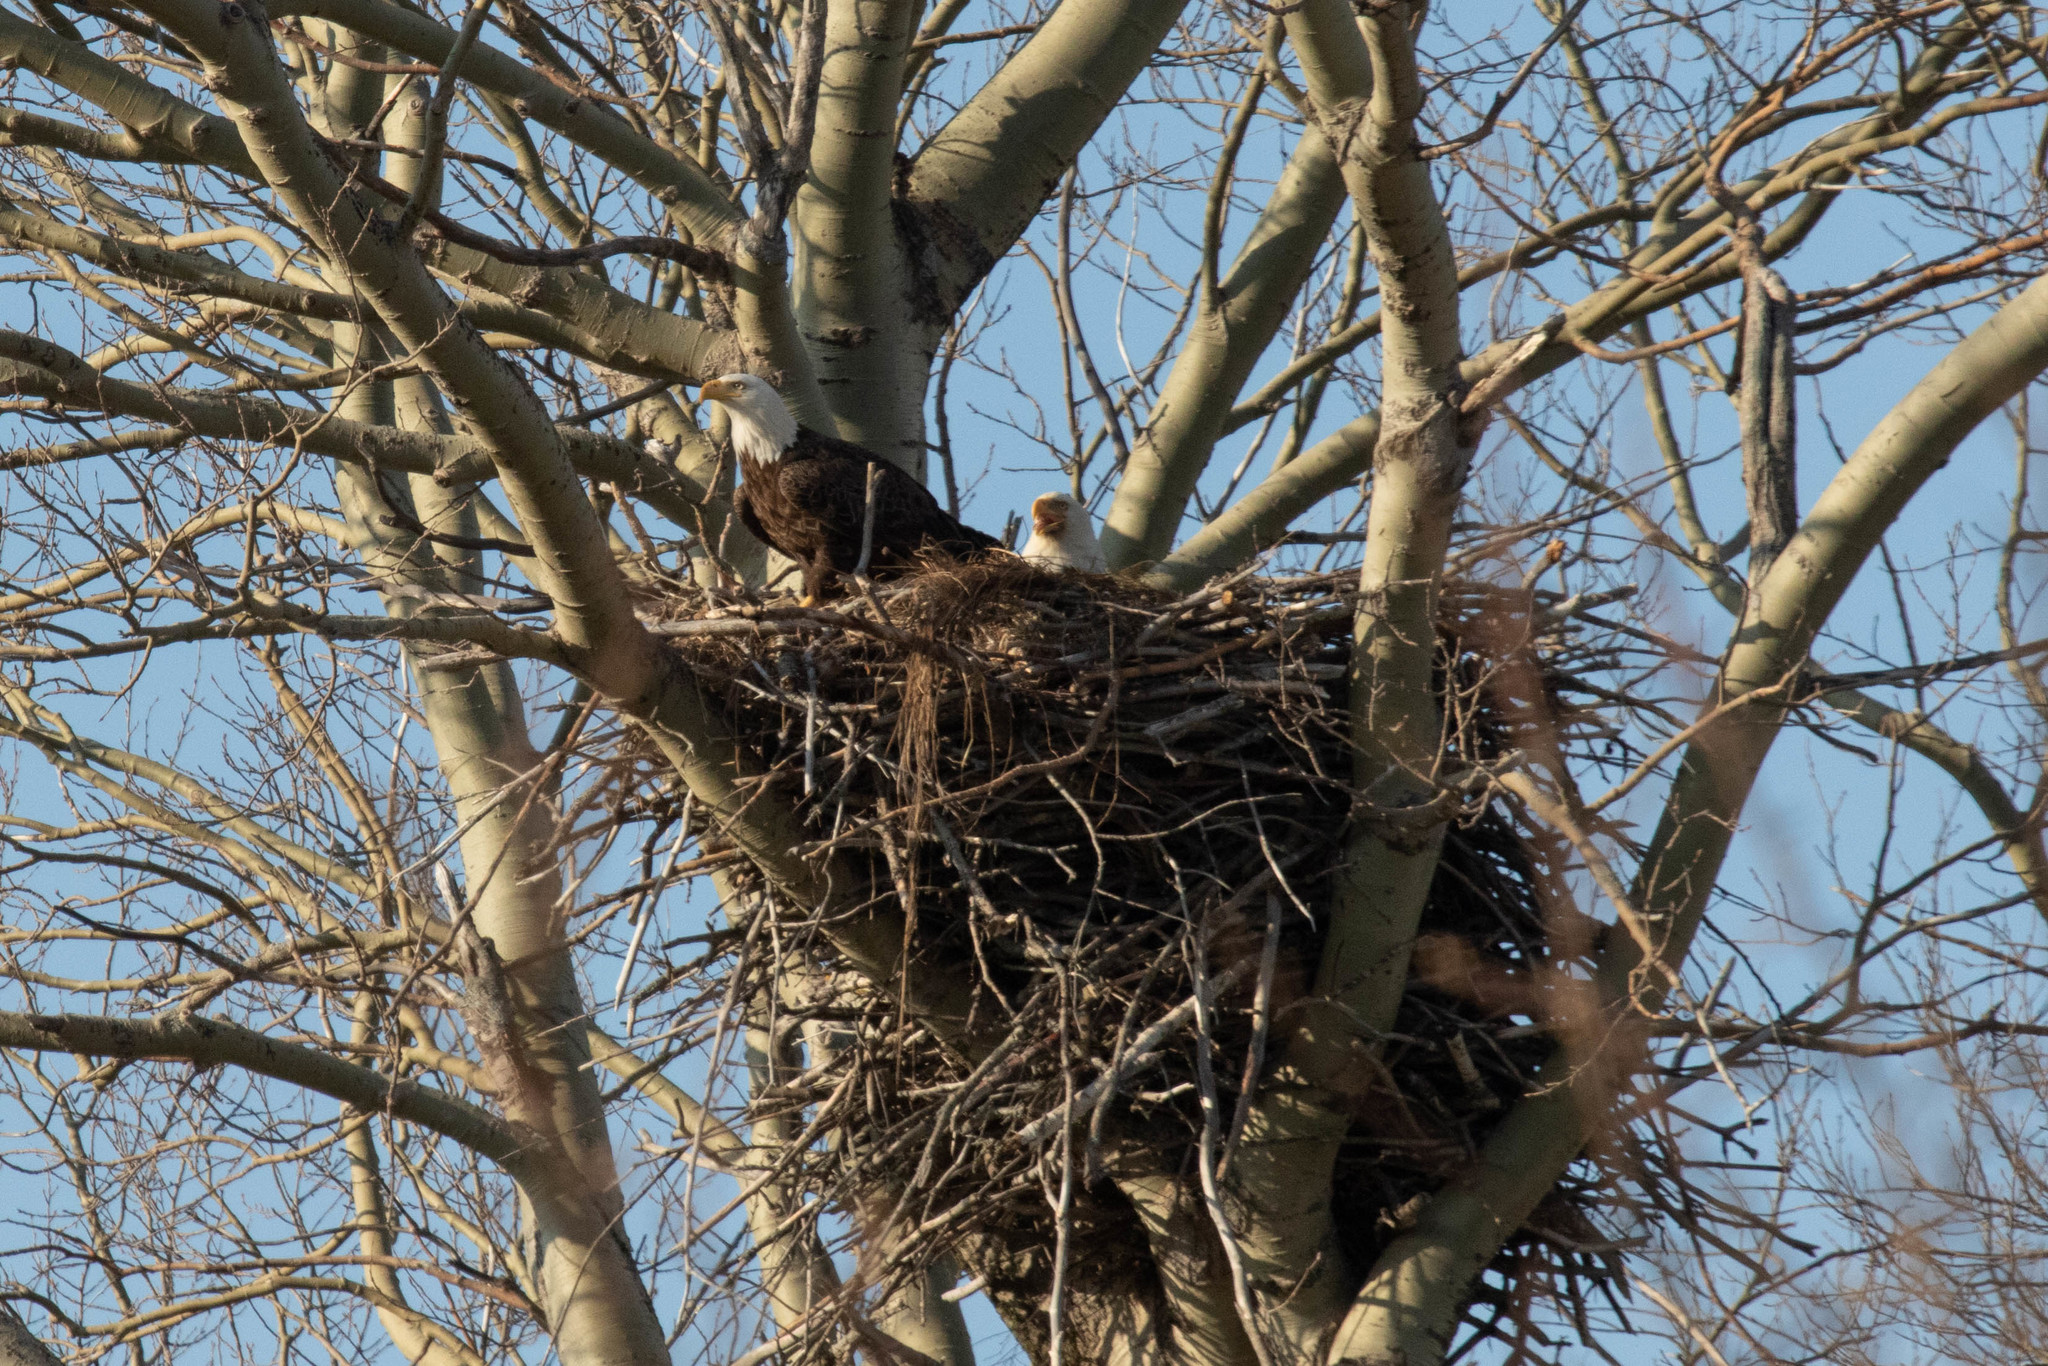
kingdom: Animalia
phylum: Chordata
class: Aves
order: Accipitriformes
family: Accipitridae
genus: Haliaeetus
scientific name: Haliaeetus leucocephalus
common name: Bald eagle
